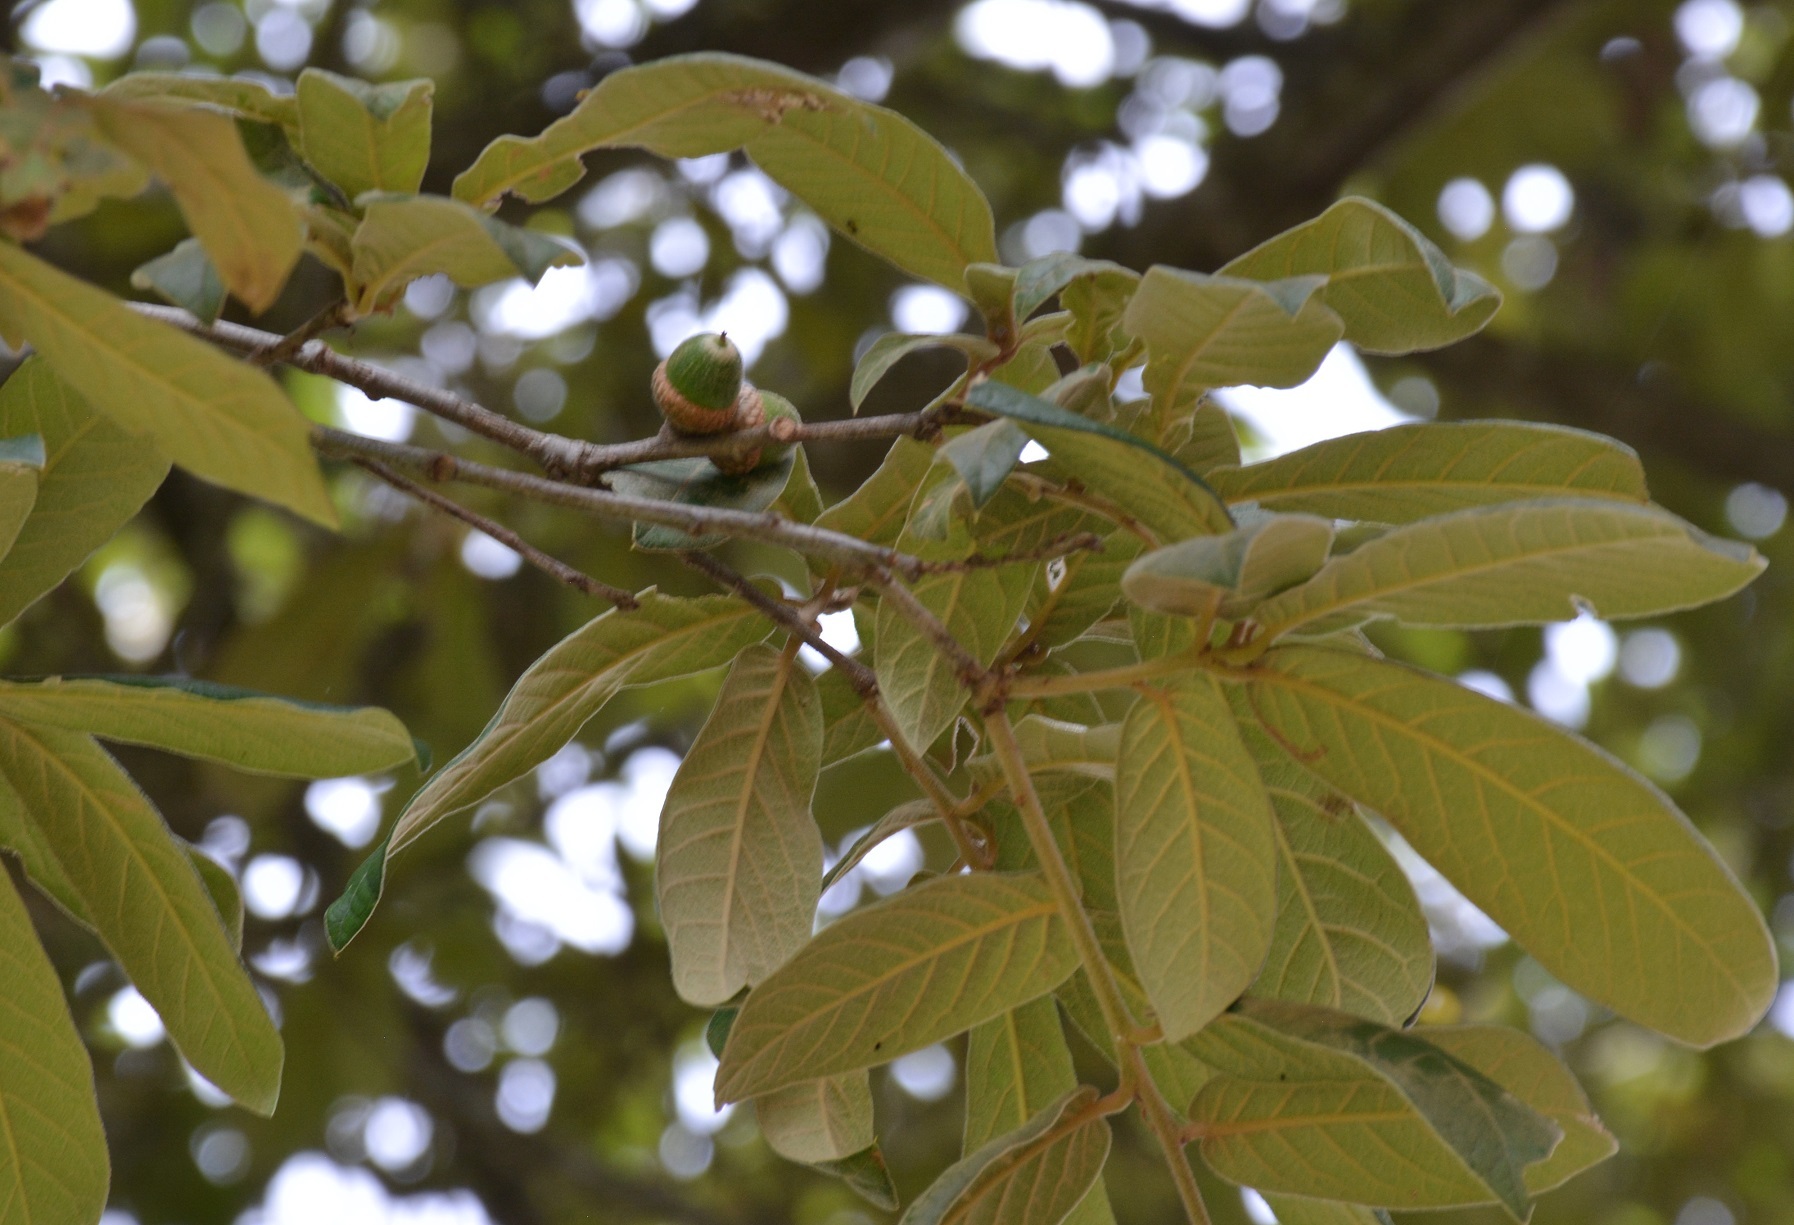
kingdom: Plantae
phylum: Tracheophyta
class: Magnoliopsida
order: Fagales
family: Fagaceae
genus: Quercus
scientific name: Quercus dysophylla
